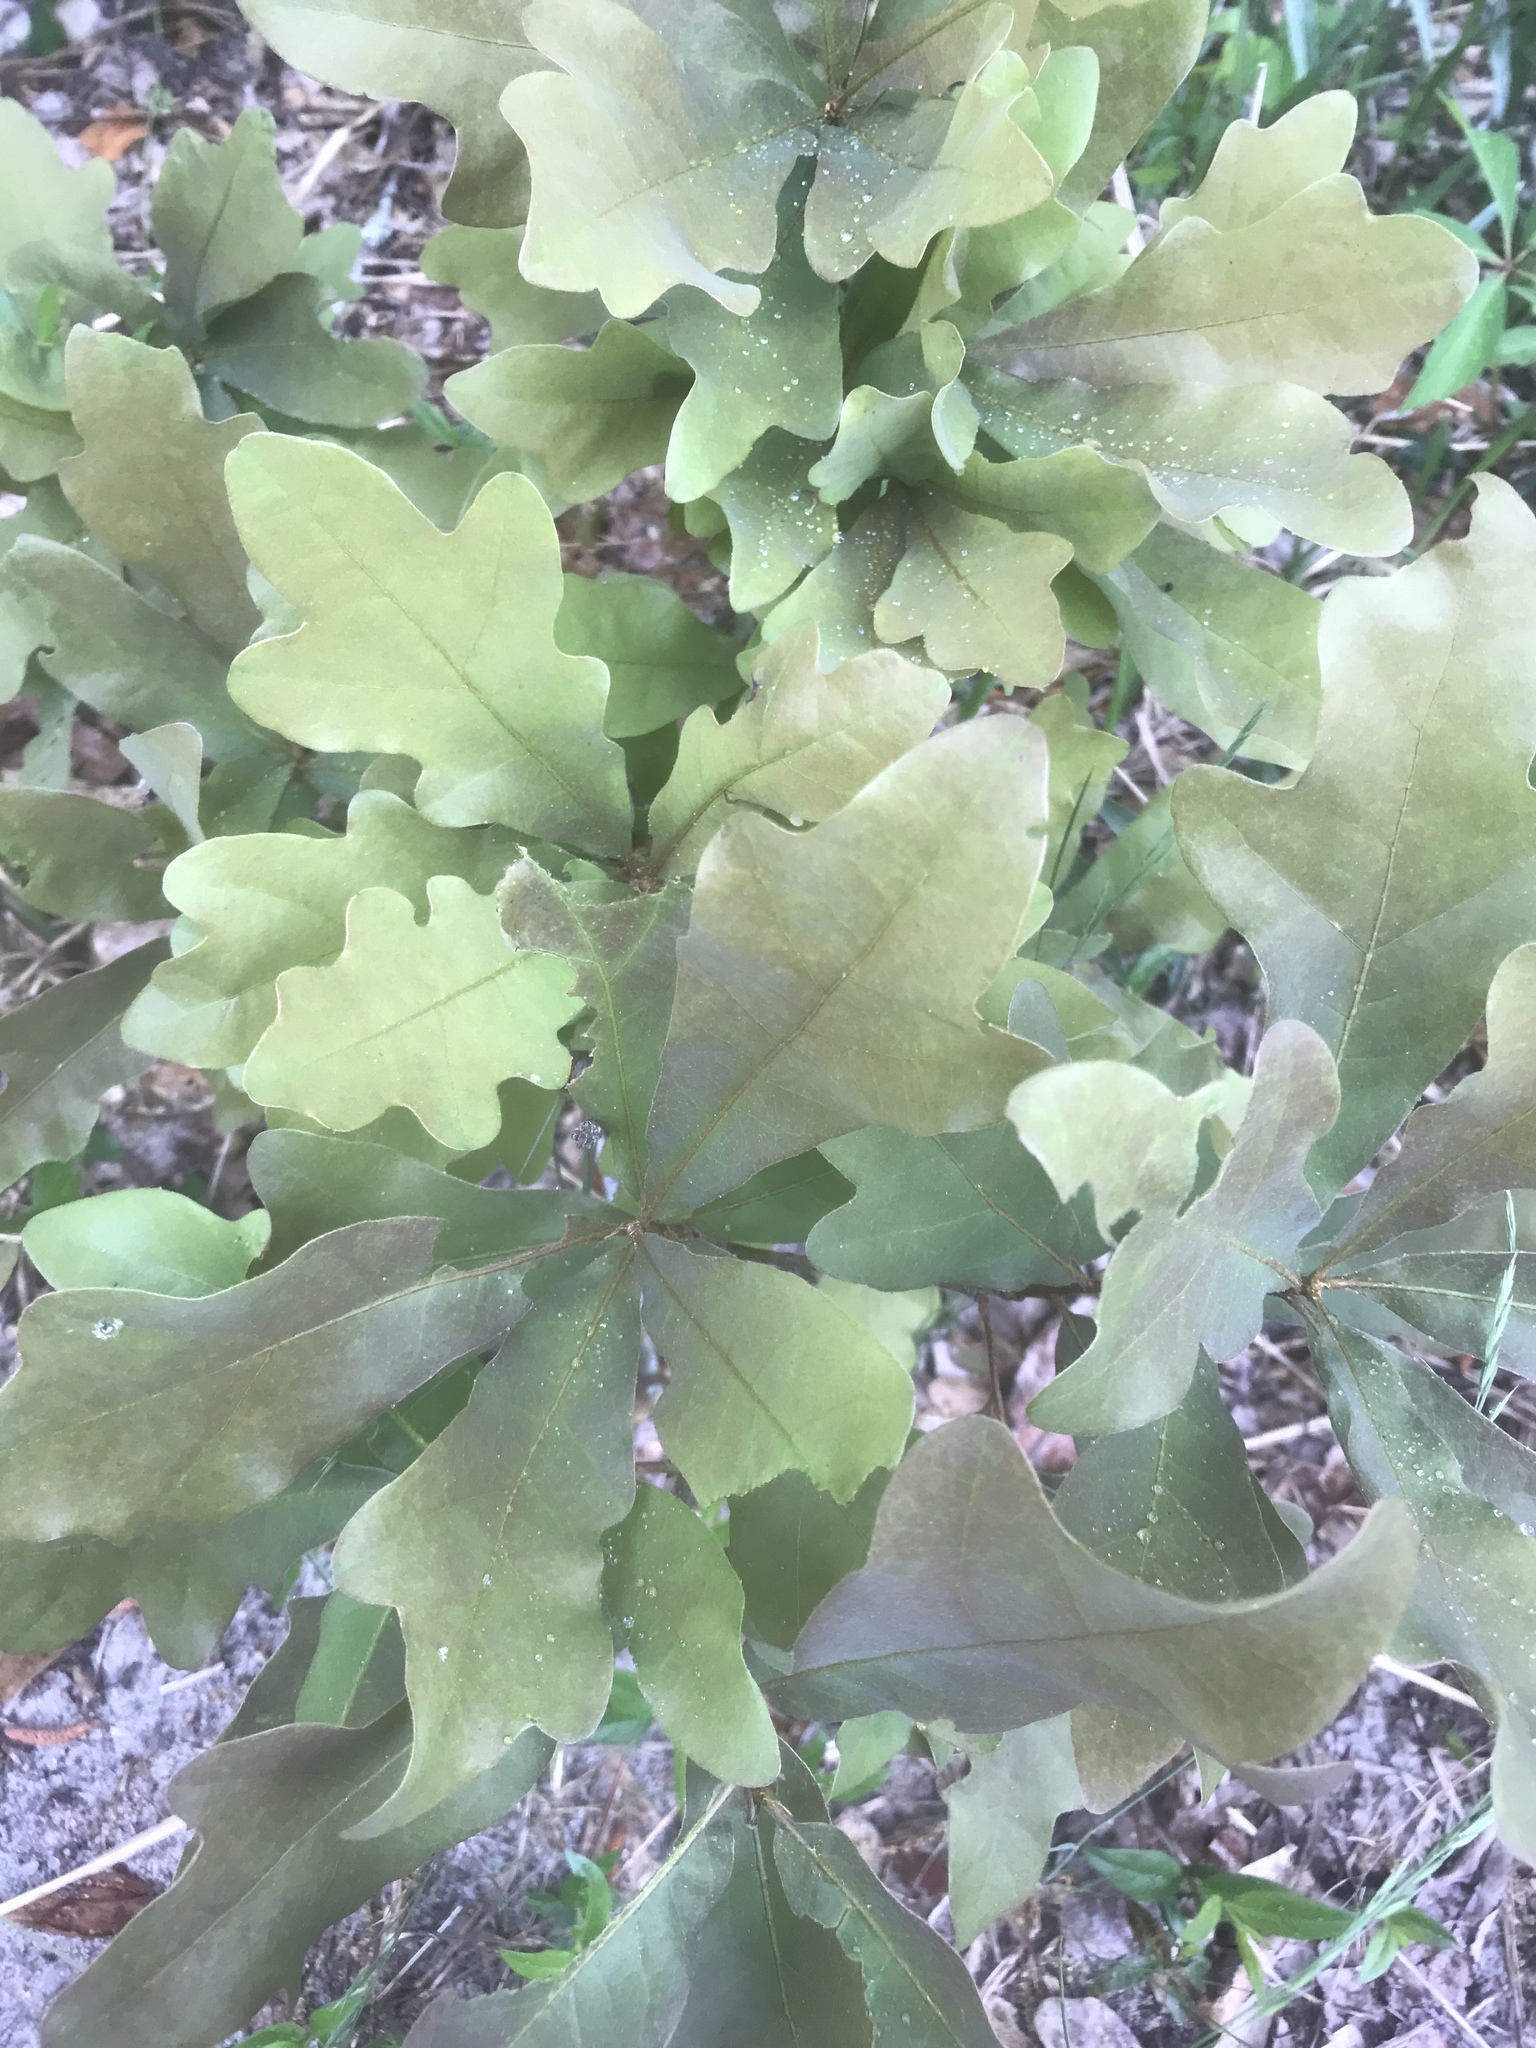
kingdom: Plantae
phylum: Tracheophyta
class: Magnoliopsida
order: Fagales
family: Fagaceae
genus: Quercus
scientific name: Quercus margaretiae
